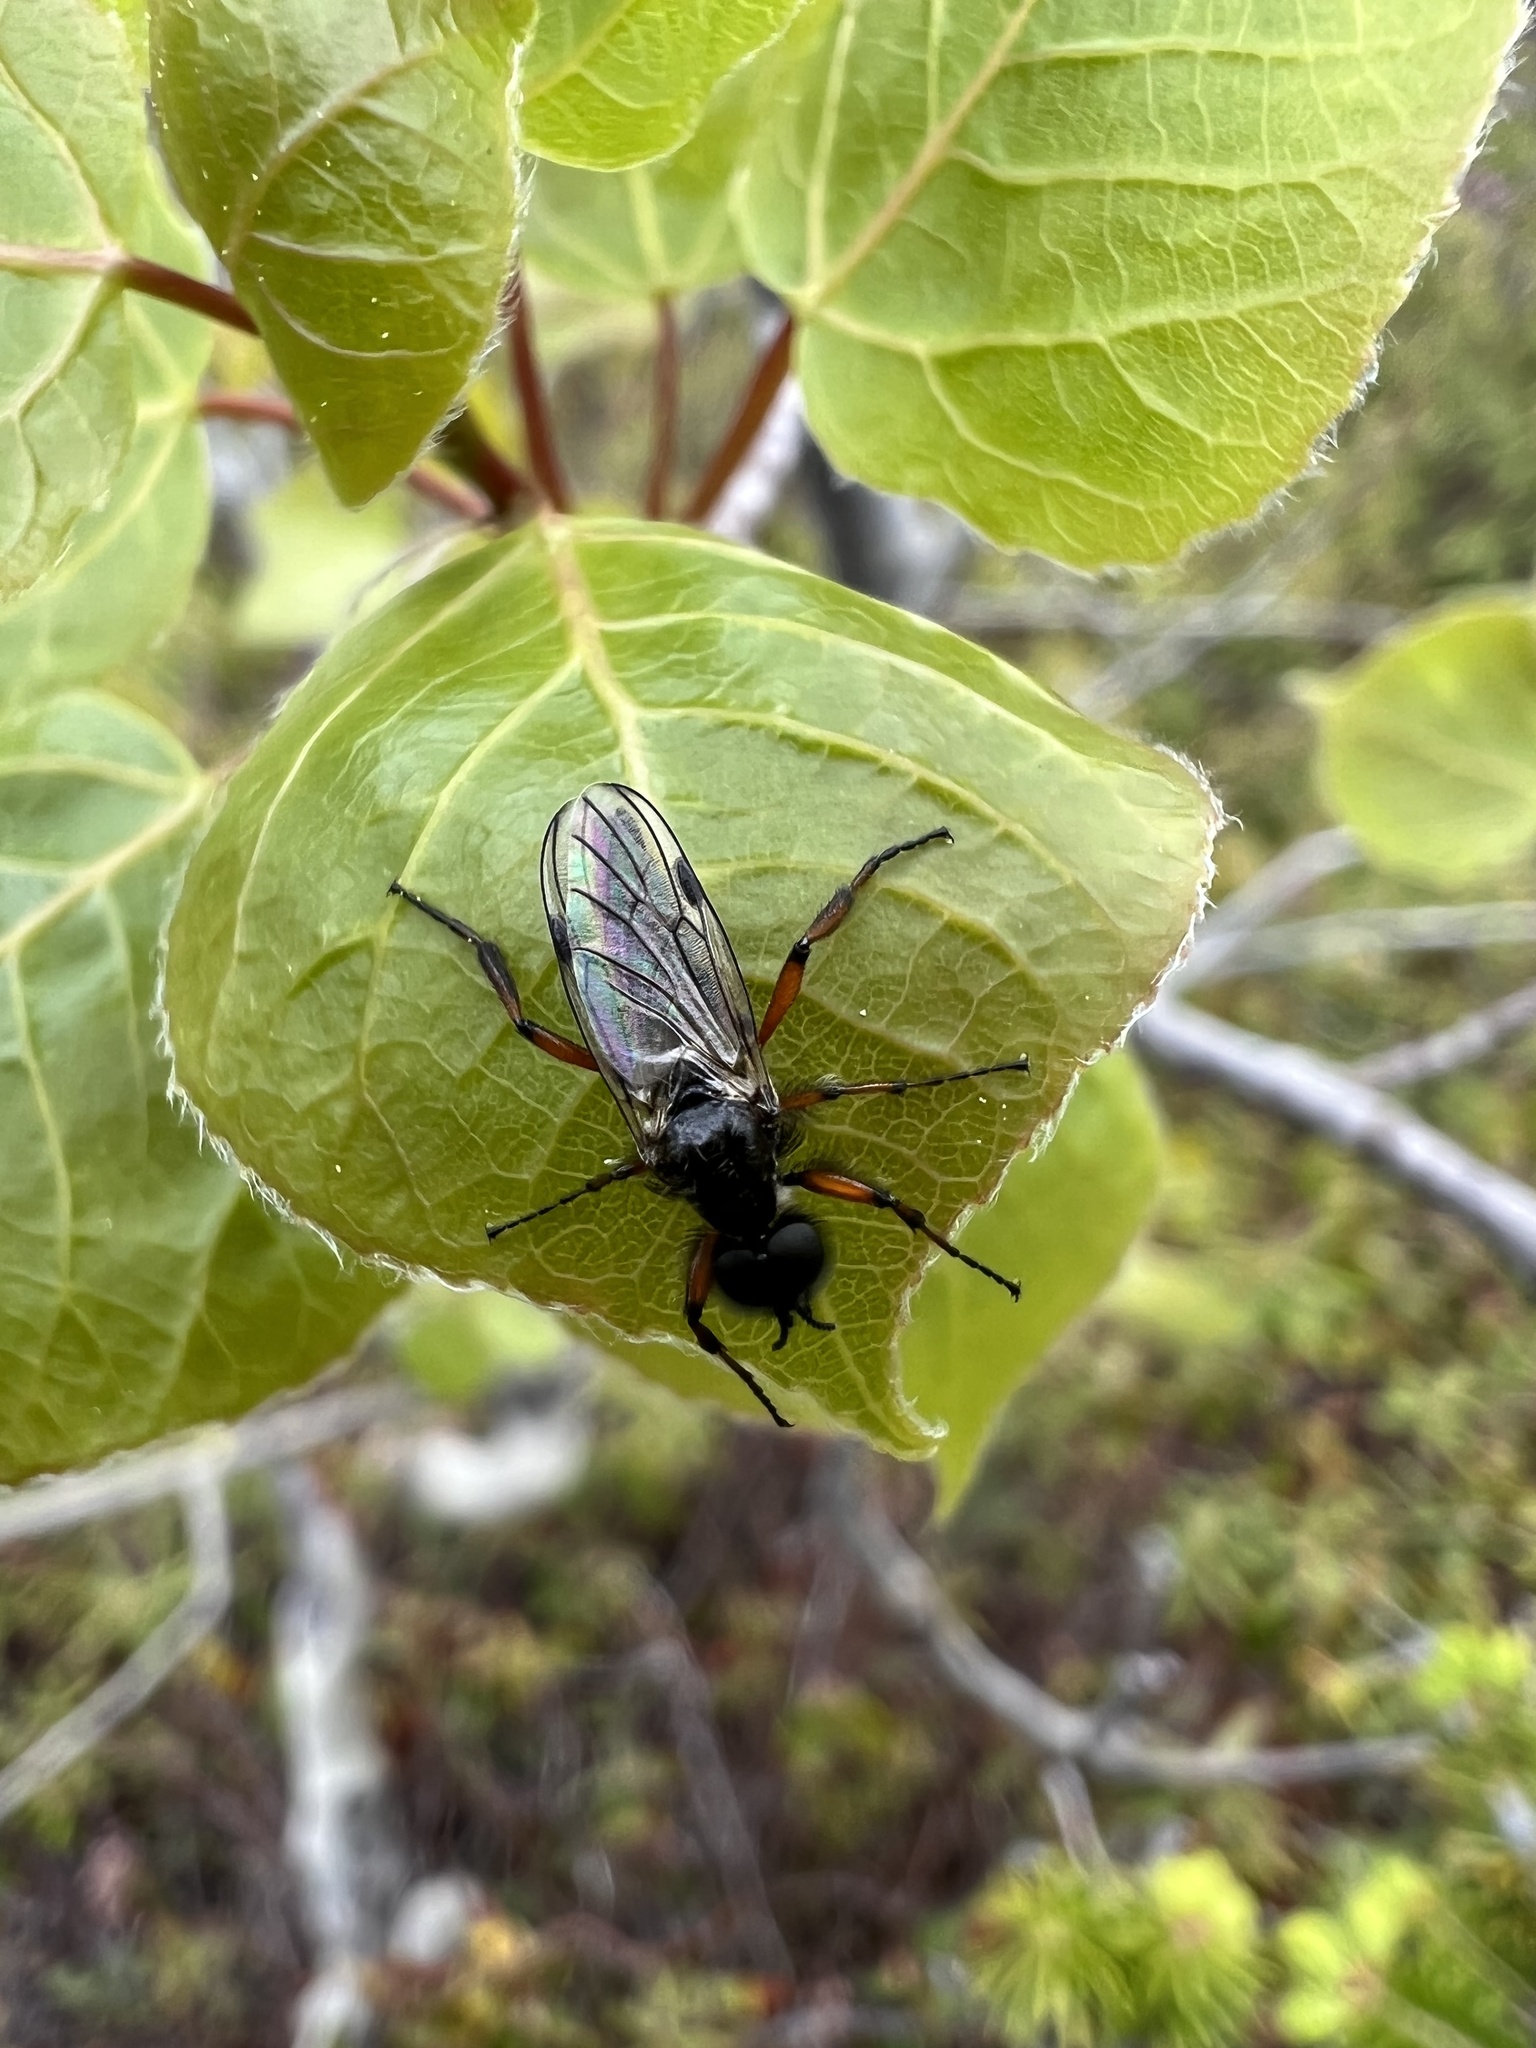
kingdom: Animalia
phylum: Arthropoda
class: Insecta
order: Diptera
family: Bibionidae
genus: Bibio
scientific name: Bibio xanthopus
